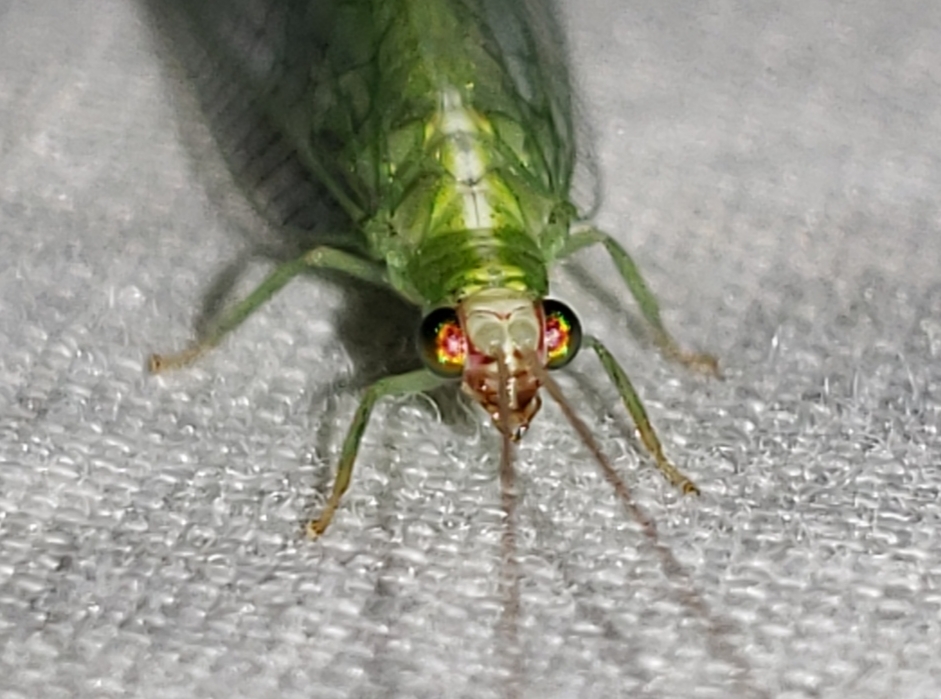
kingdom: Animalia
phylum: Arthropoda
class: Insecta
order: Neuroptera
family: Chrysopidae
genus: Chrysopodes
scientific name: Chrysopodes collaris
